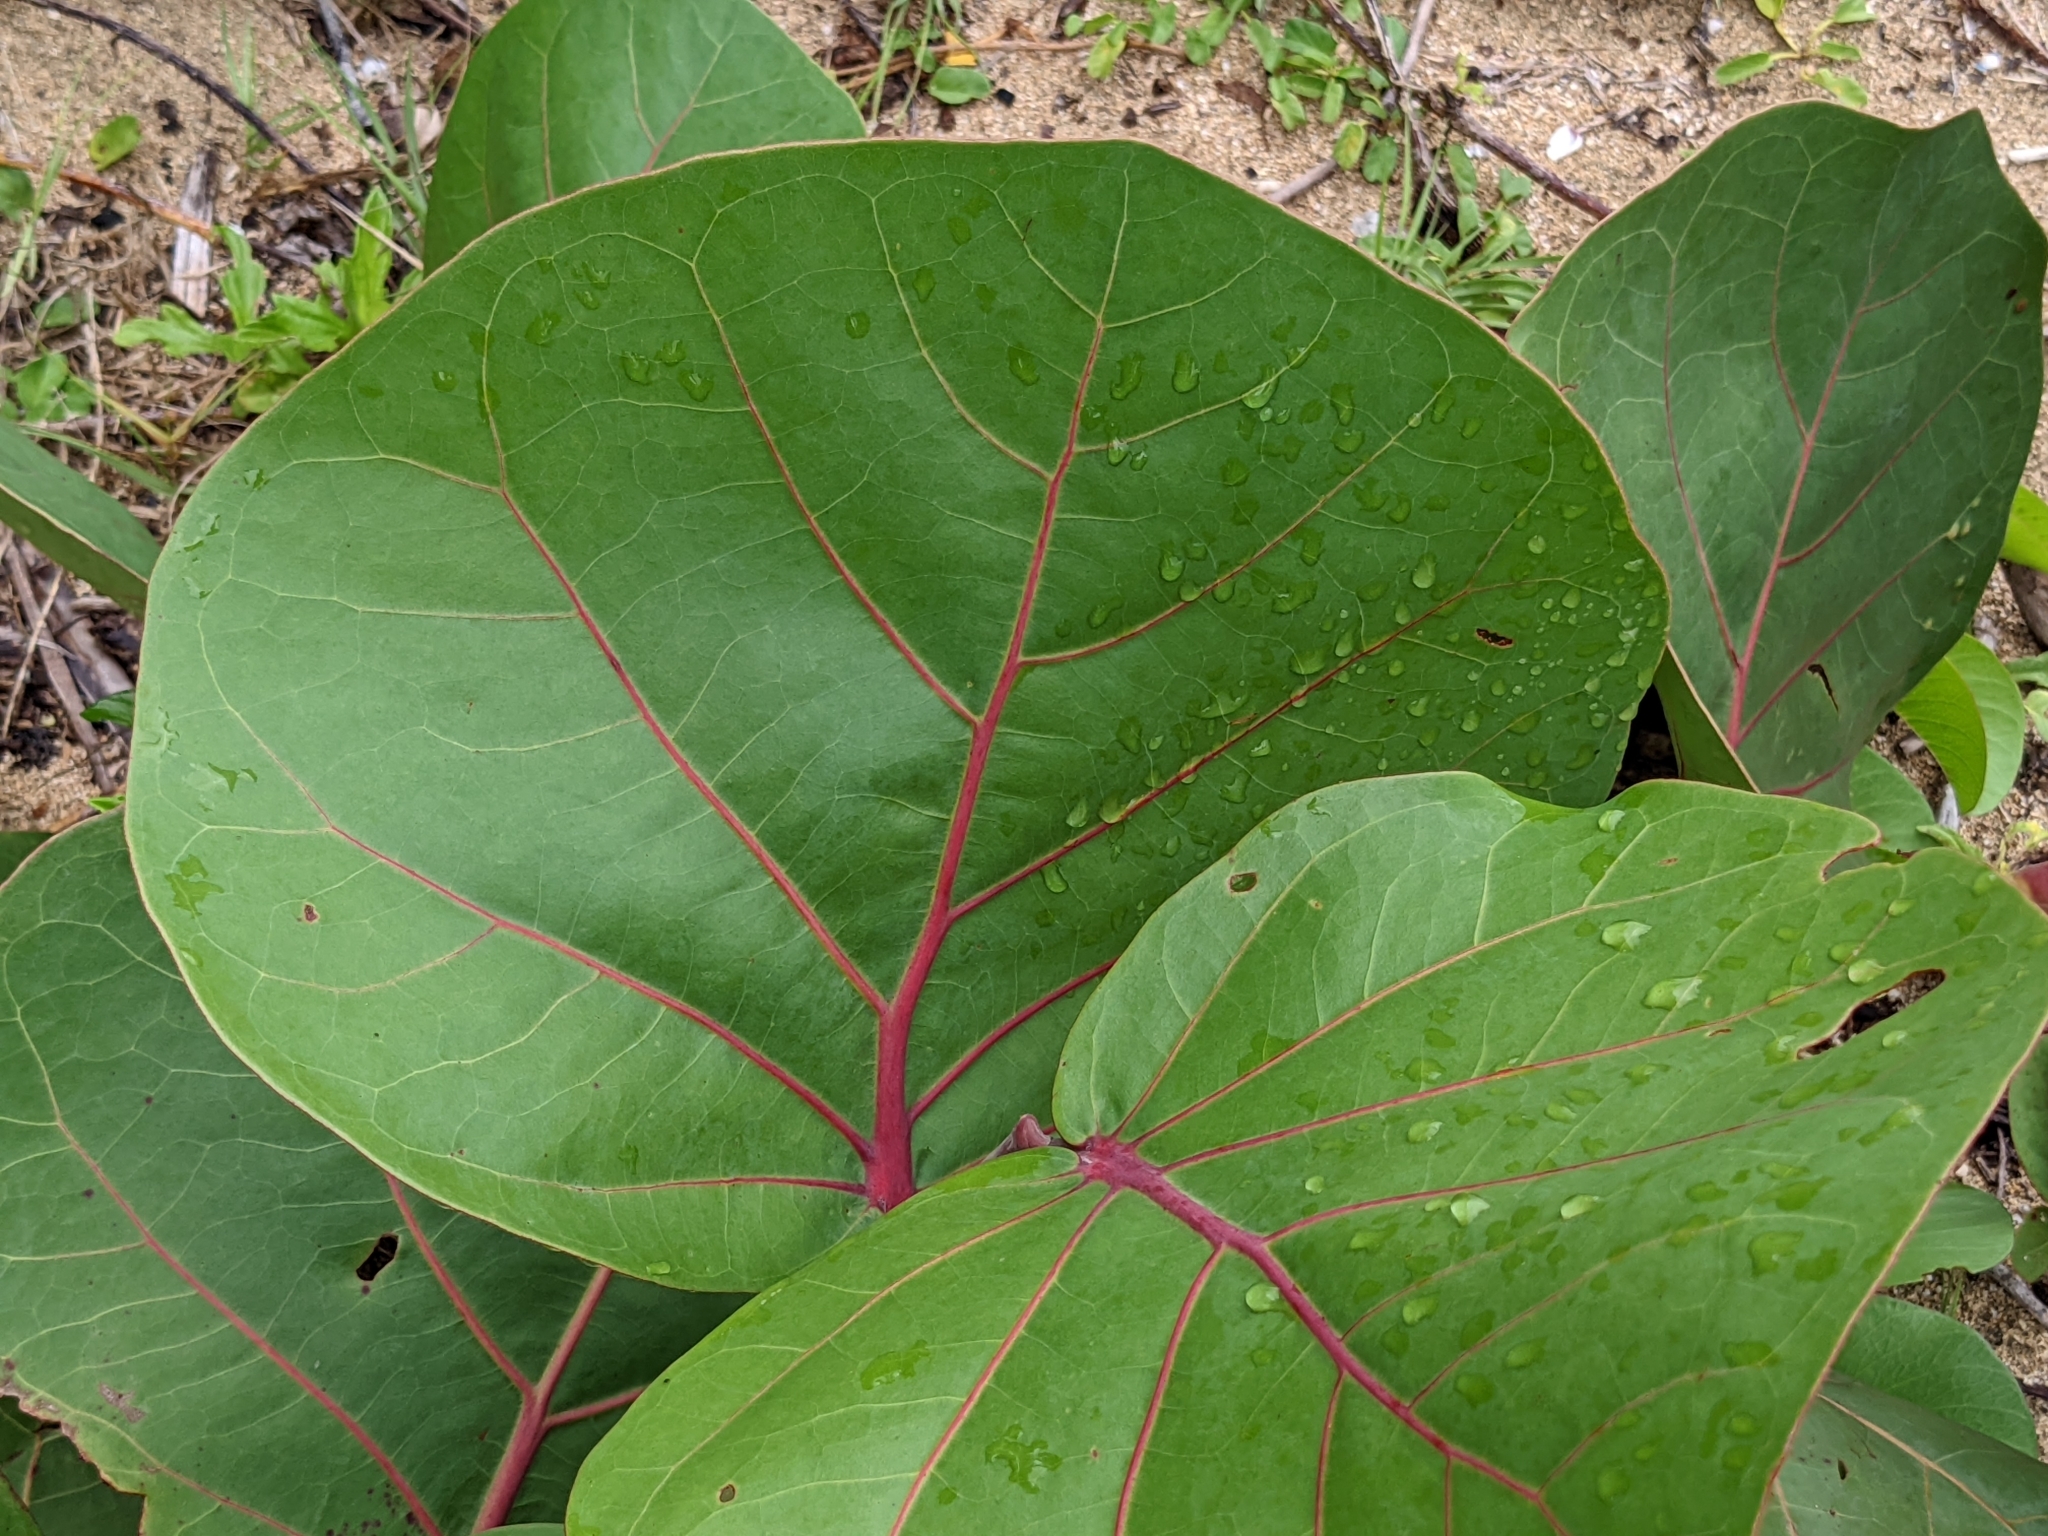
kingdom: Plantae
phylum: Tracheophyta
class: Magnoliopsida
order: Caryophyllales
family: Polygonaceae
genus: Coccoloba
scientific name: Coccoloba uvifera
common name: Seagrape
